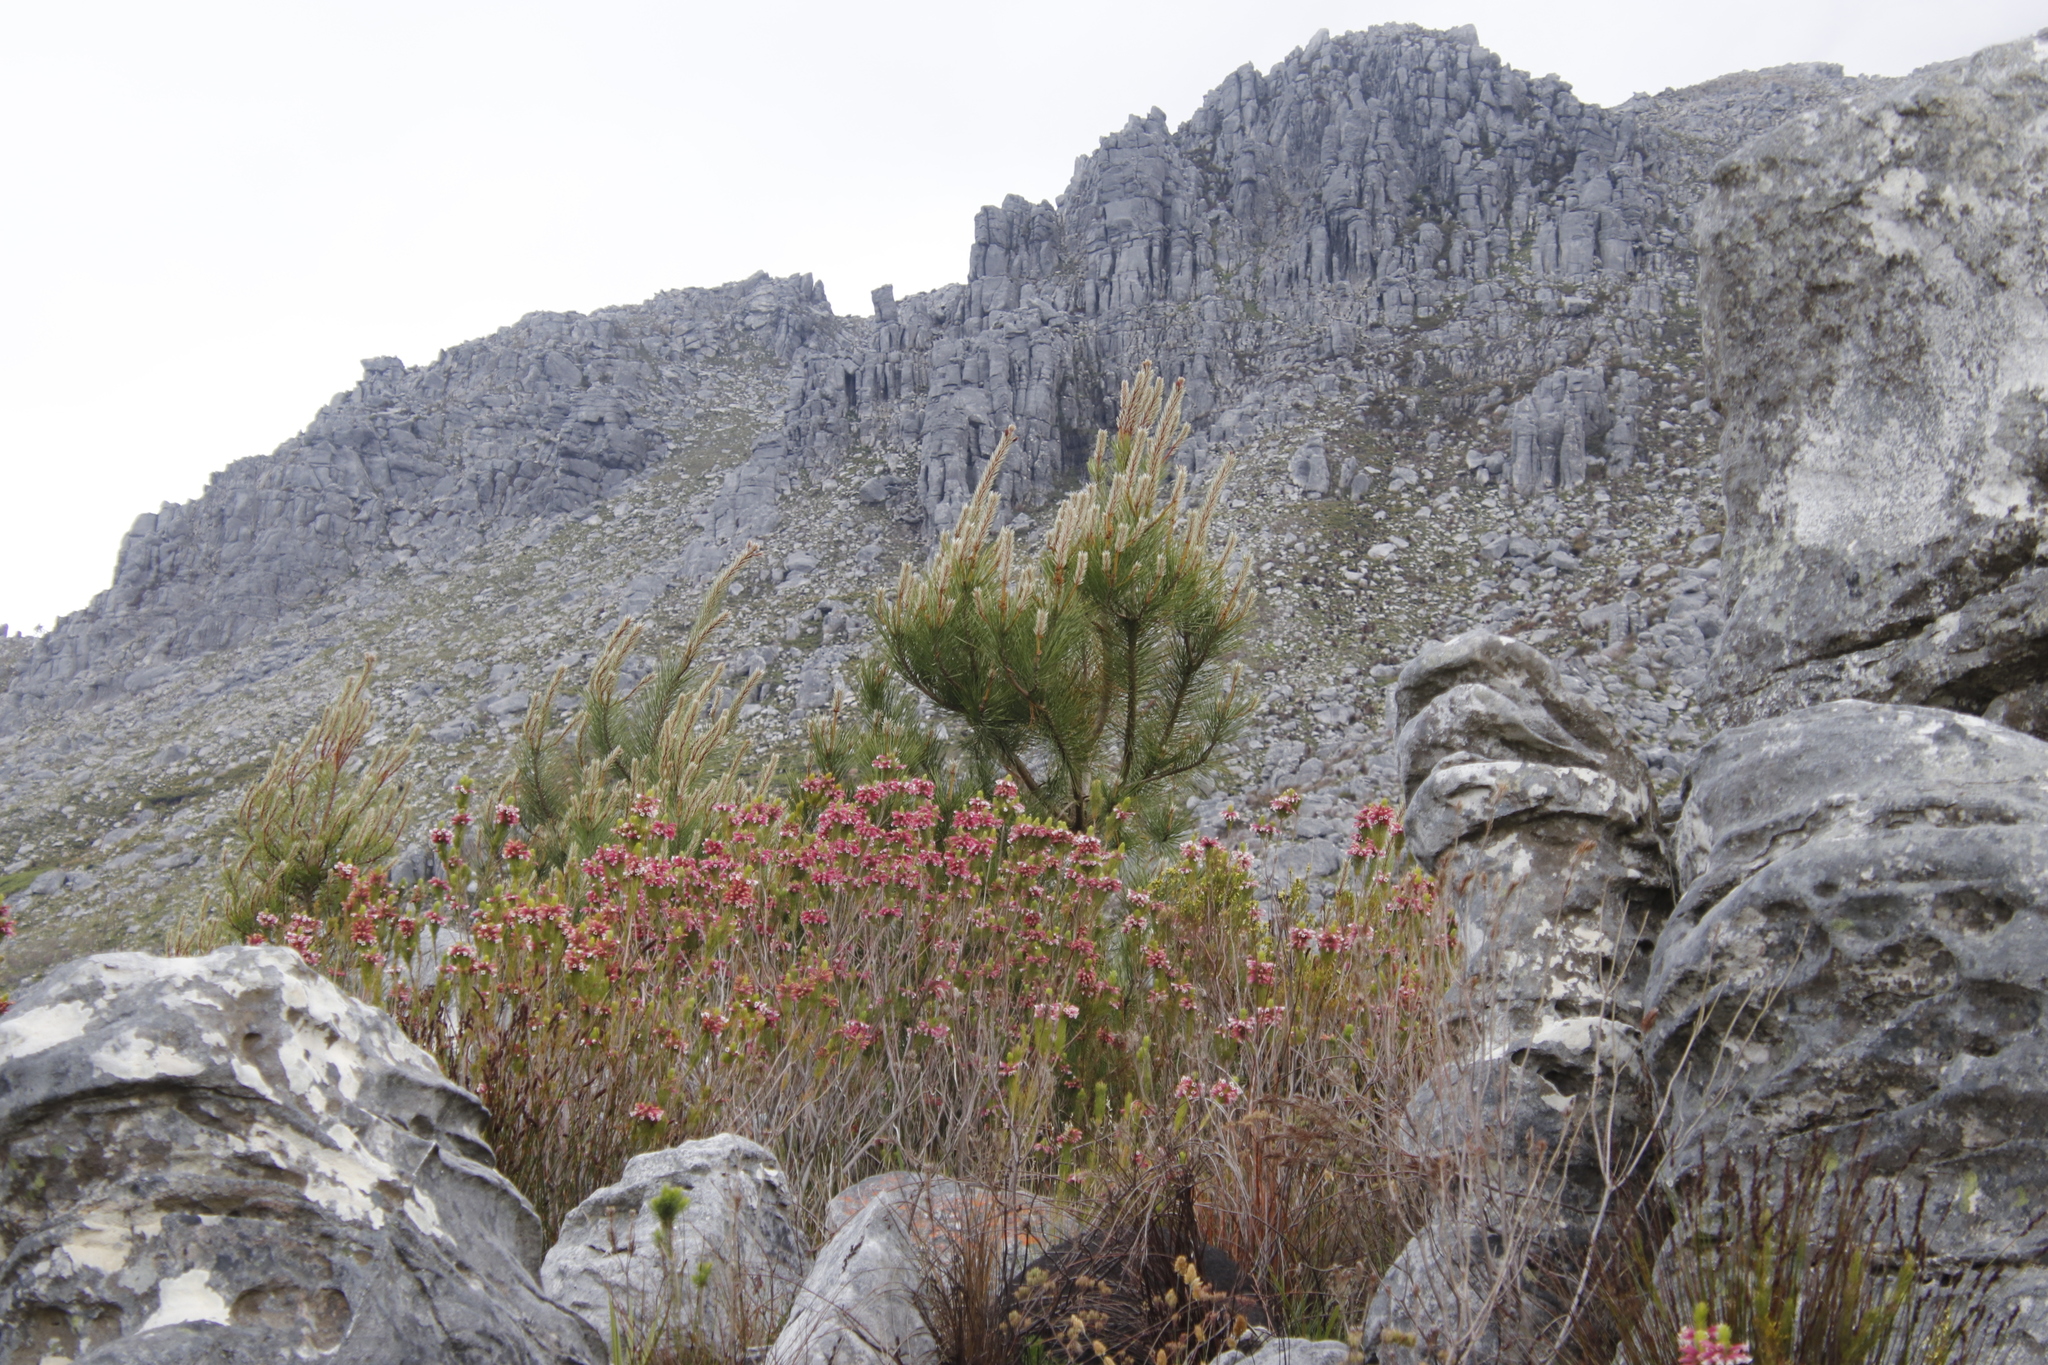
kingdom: Plantae
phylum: Tracheophyta
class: Pinopsida
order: Pinales
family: Pinaceae
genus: Pinus
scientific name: Pinus pinaster
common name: Maritime pine
